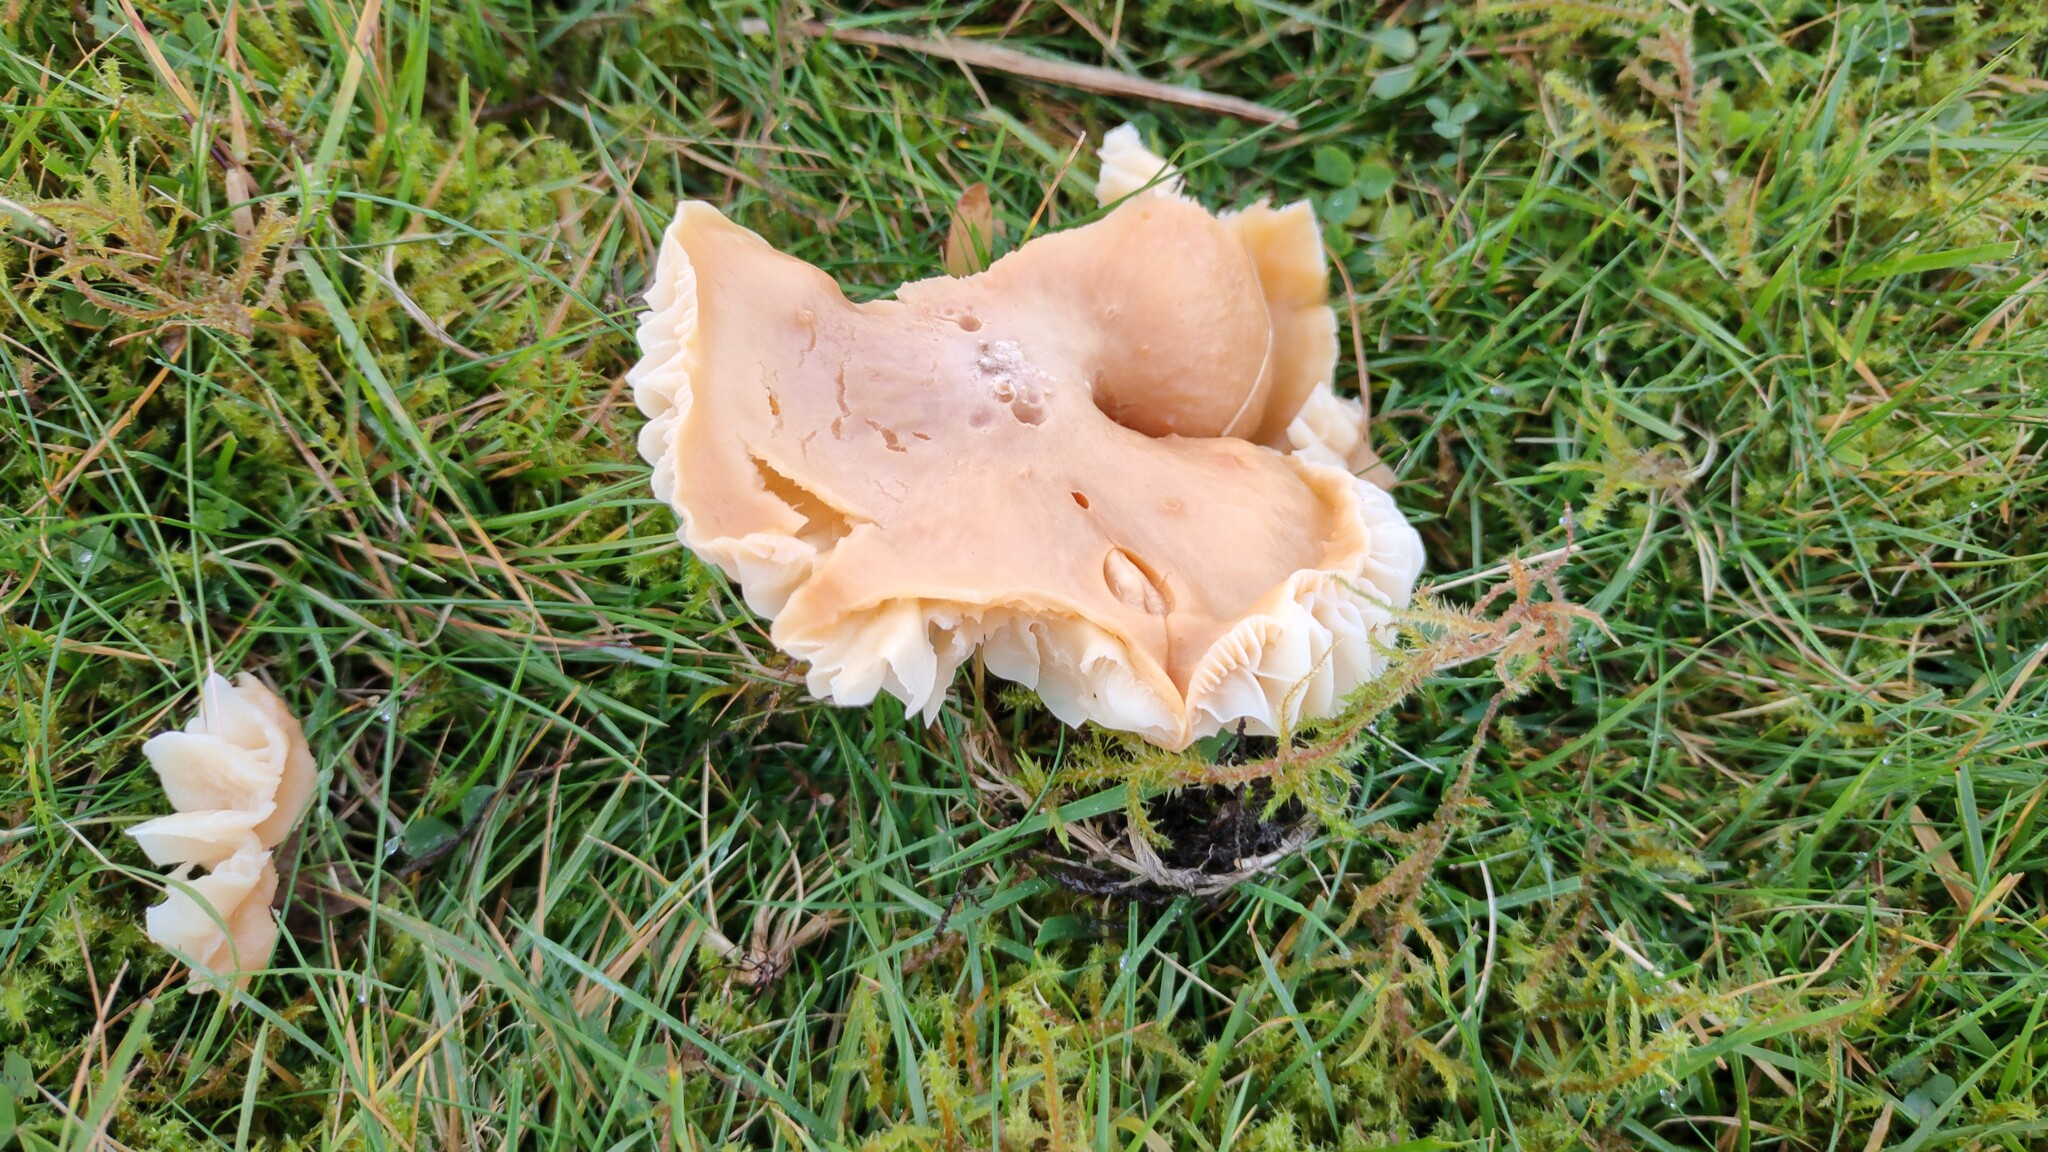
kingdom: Fungi
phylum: Basidiomycota
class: Agaricomycetes
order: Agaricales
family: Hygrophoraceae
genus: Cuphophyllus
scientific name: Cuphophyllus pratensis
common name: Meadow waxcap
